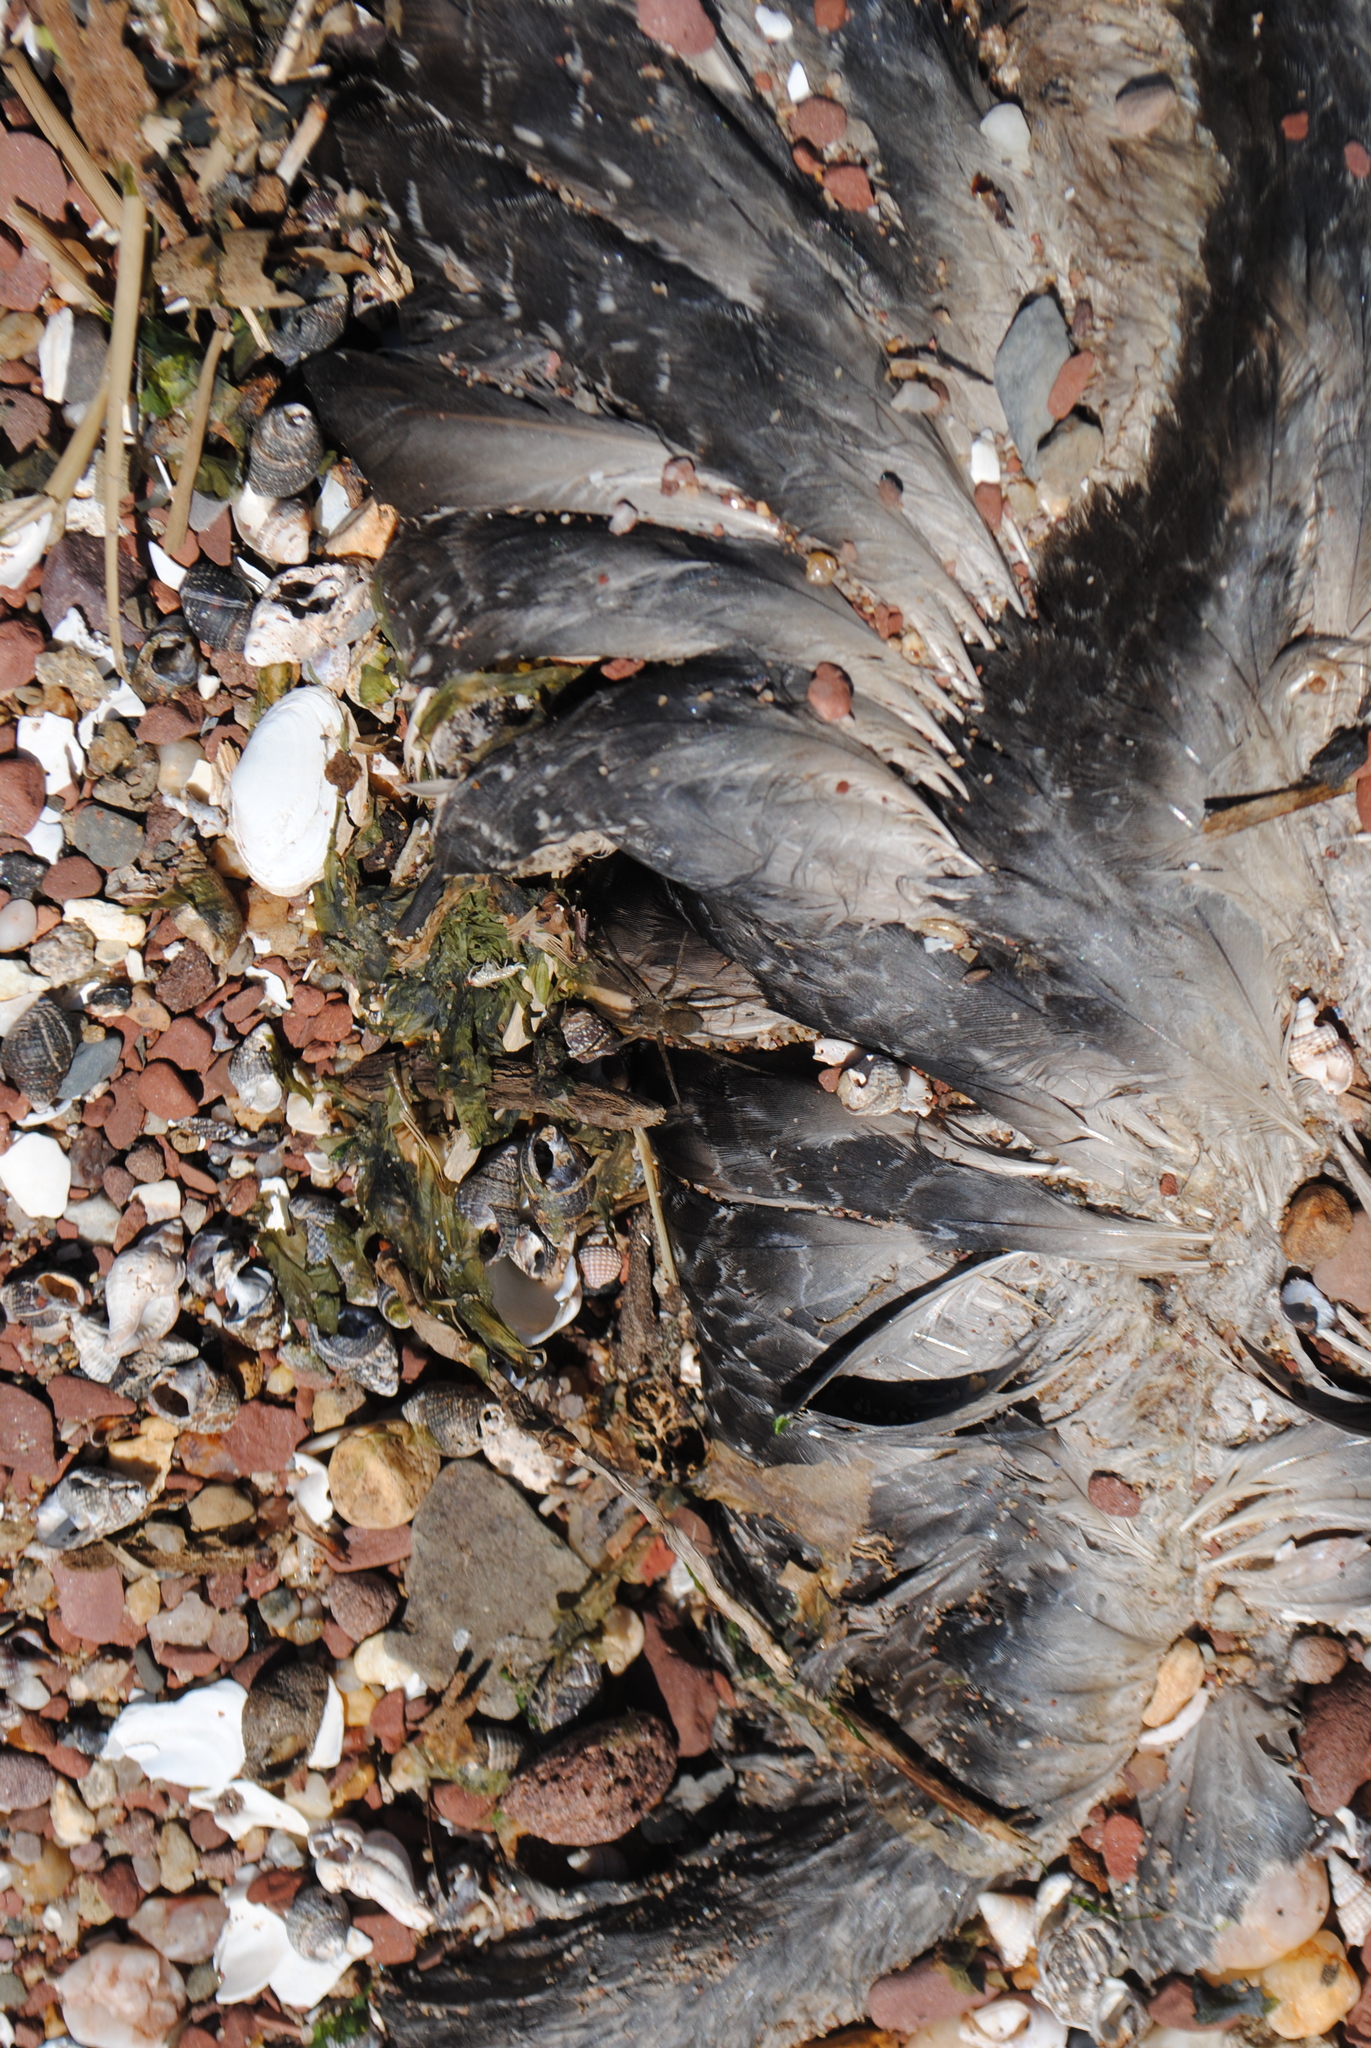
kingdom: Animalia
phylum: Chordata
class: Aves
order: Gaviiformes
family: Gaviidae
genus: Gavia
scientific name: Gavia immer
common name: Common loon
